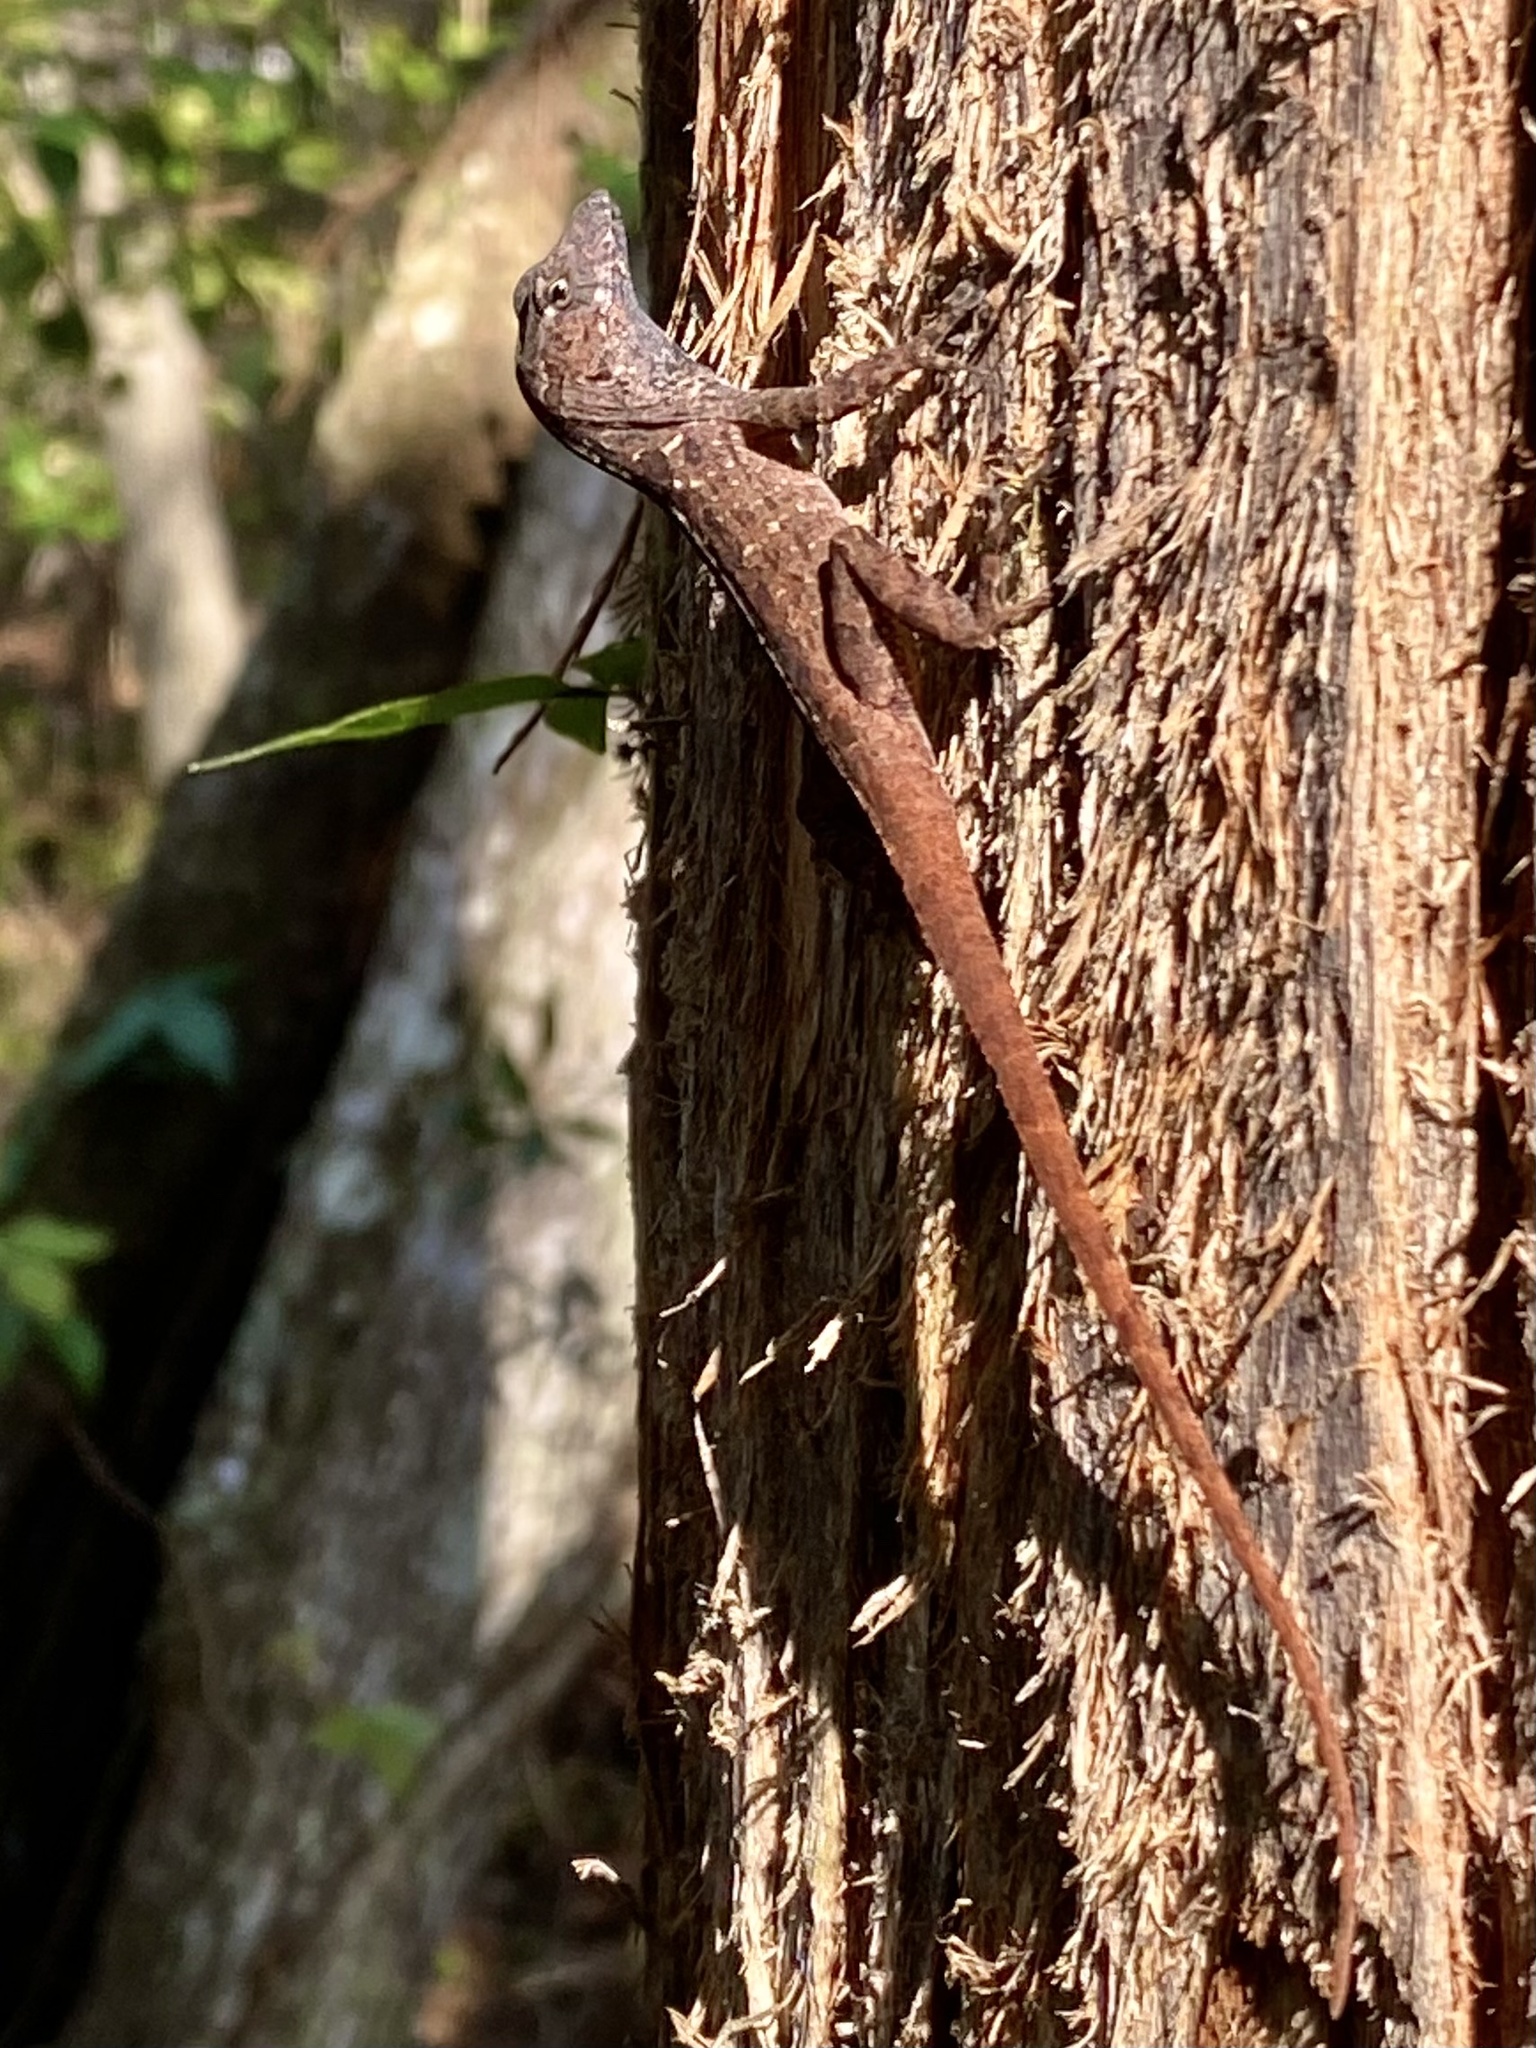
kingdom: Animalia
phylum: Chordata
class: Squamata
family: Dactyloidae
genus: Anolis
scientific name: Anolis sagrei
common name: Brown anole
